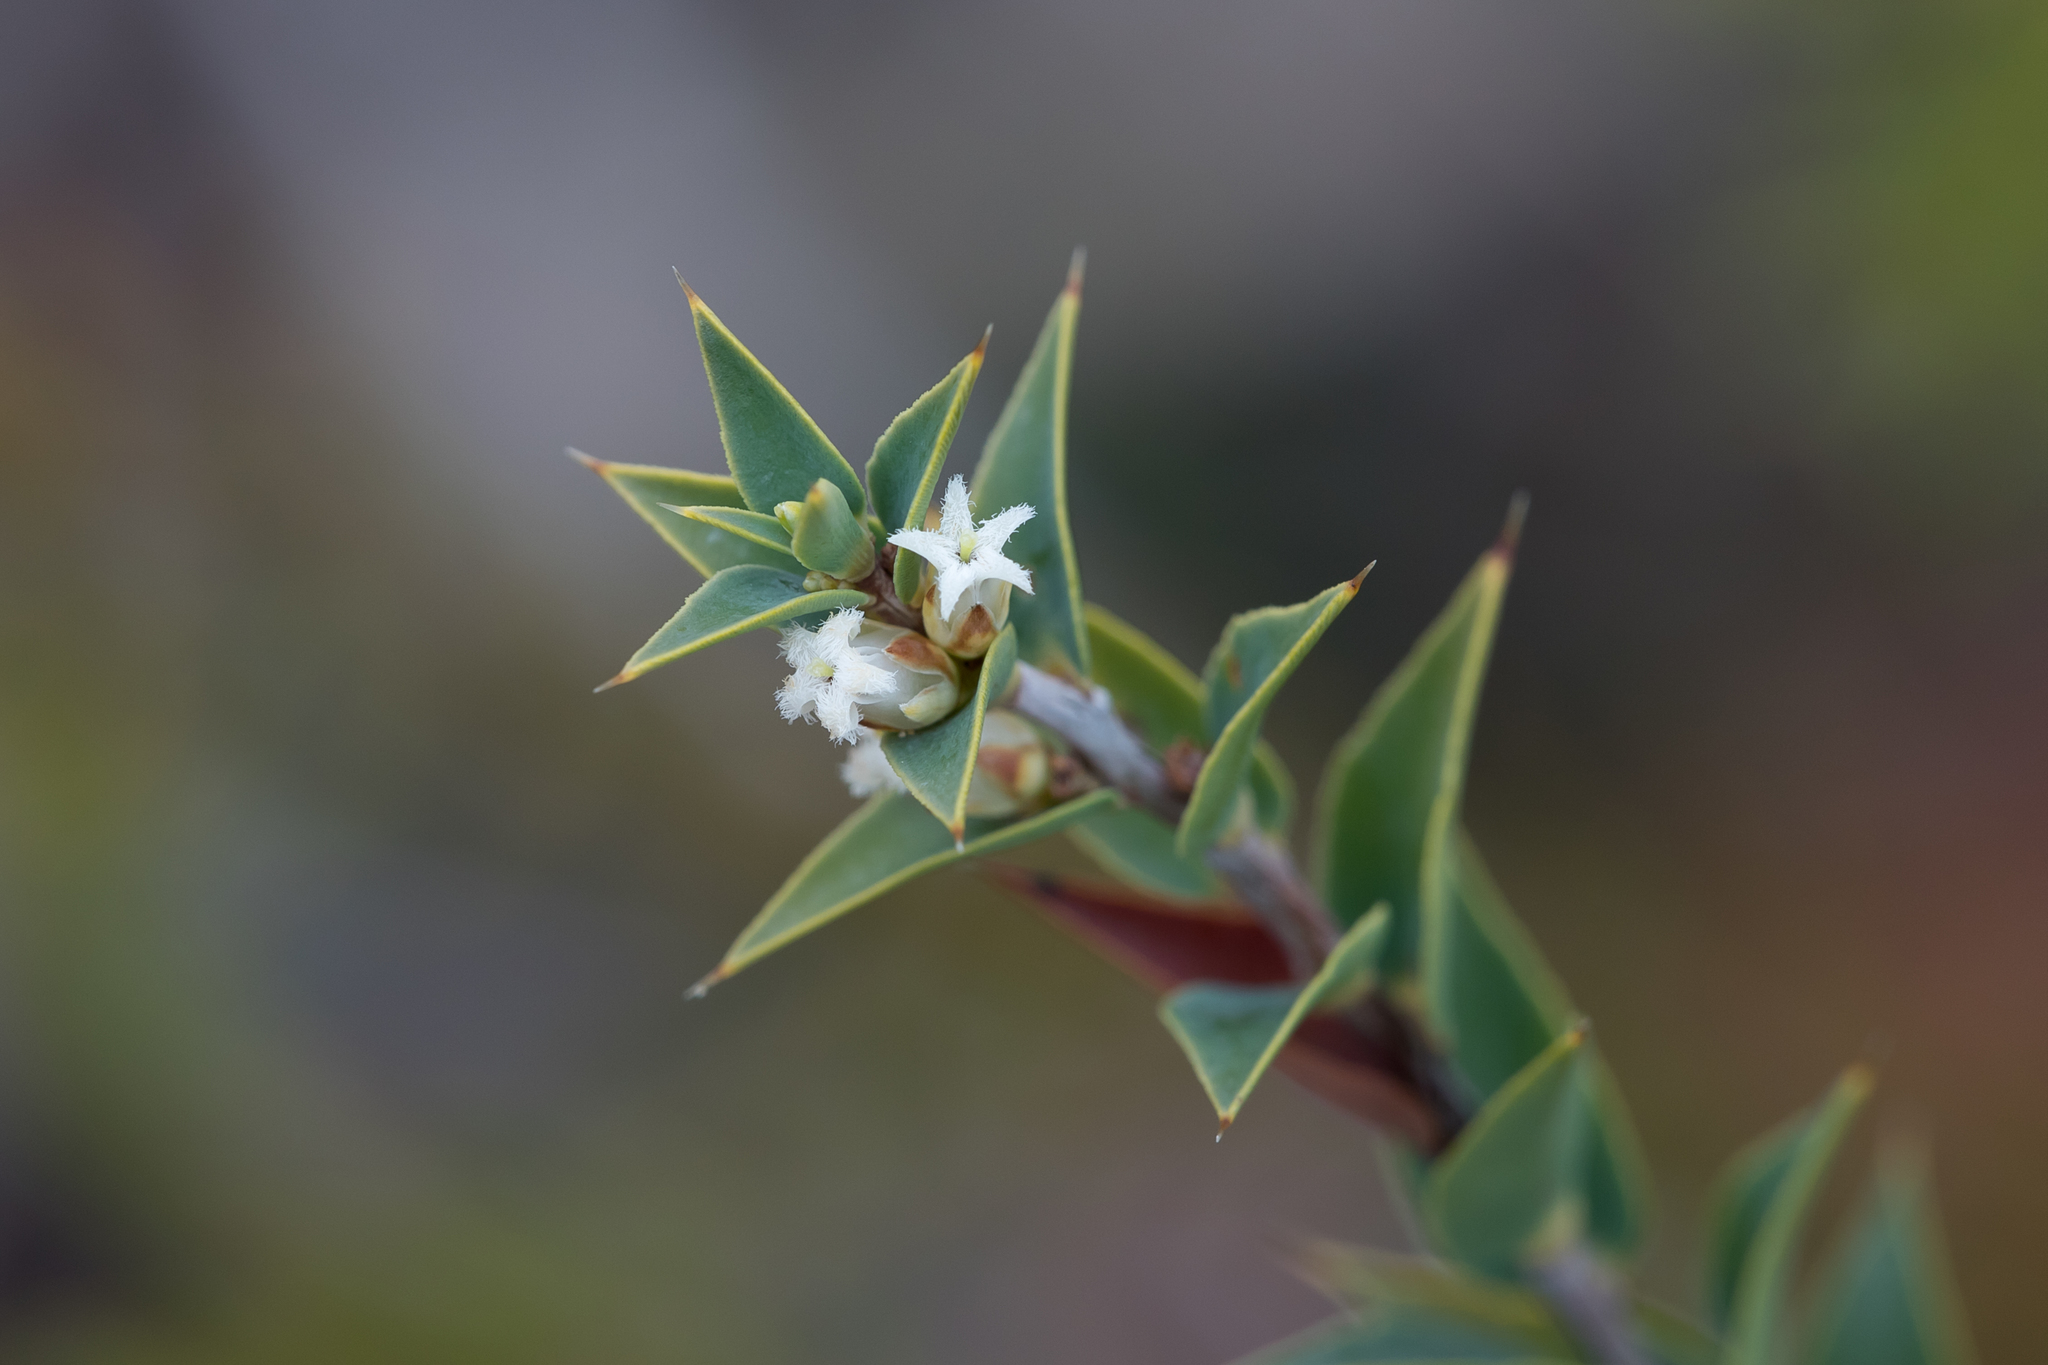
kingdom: Plantae
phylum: Tracheophyta
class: Magnoliopsida
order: Ericales
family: Ericaceae
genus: Styphelia
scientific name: Styphelia rufa
